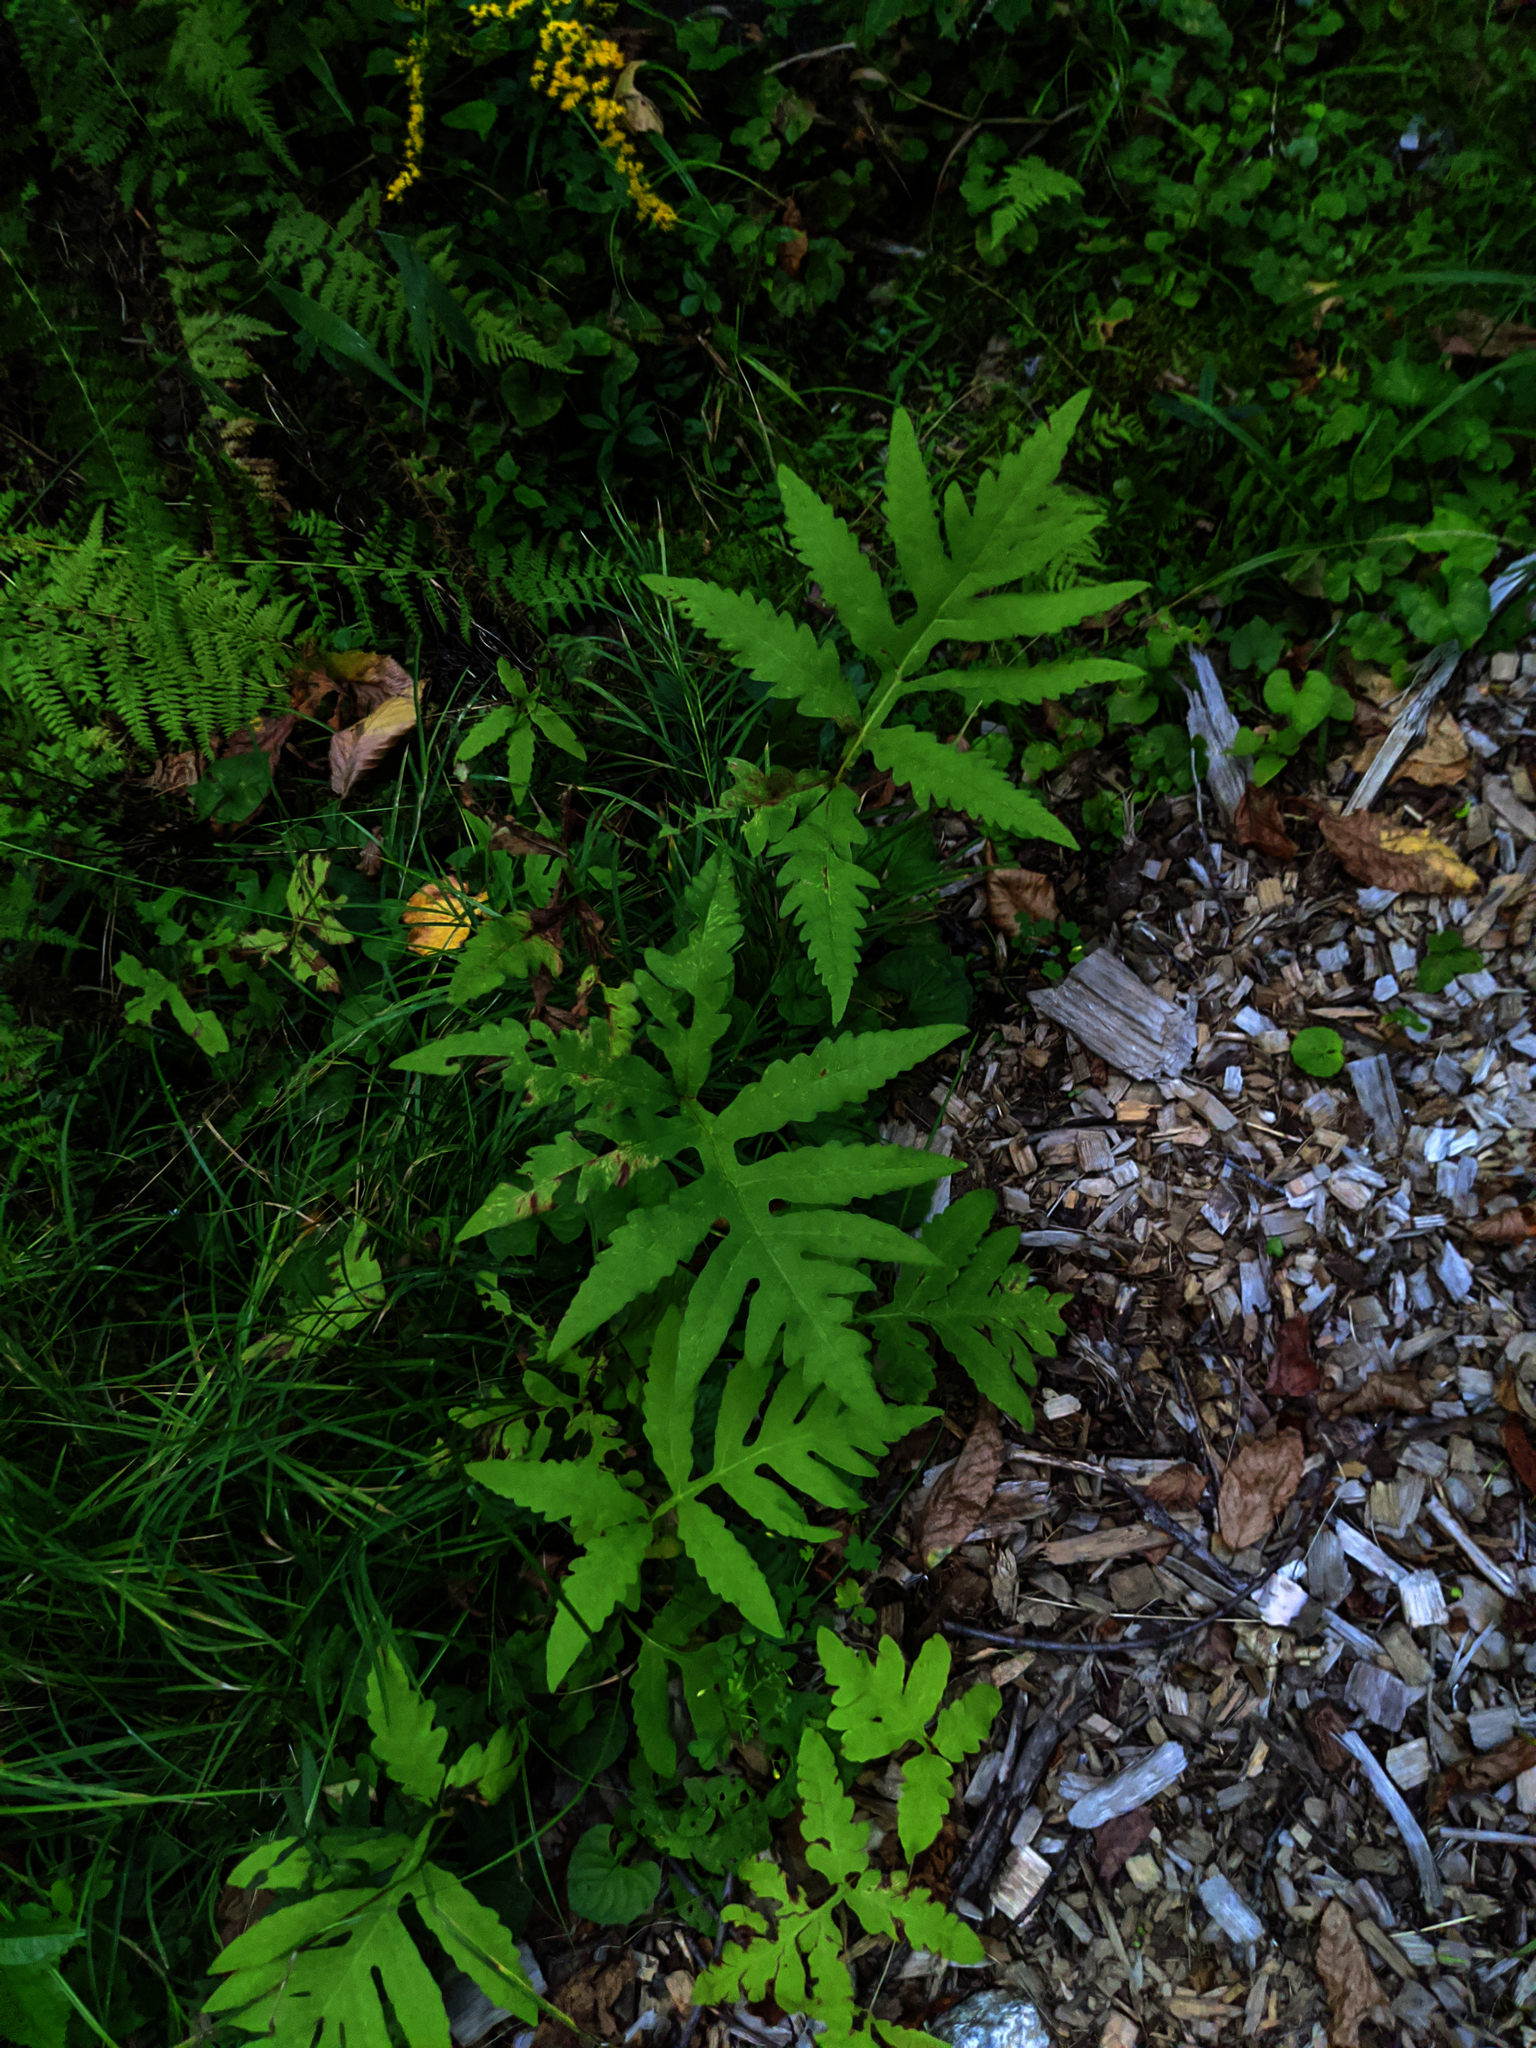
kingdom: Plantae
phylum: Tracheophyta
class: Polypodiopsida
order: Polypodiales
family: Onocleaceae
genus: Onoclea
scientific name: Onoclea sensibilis
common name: Sensitive fern
